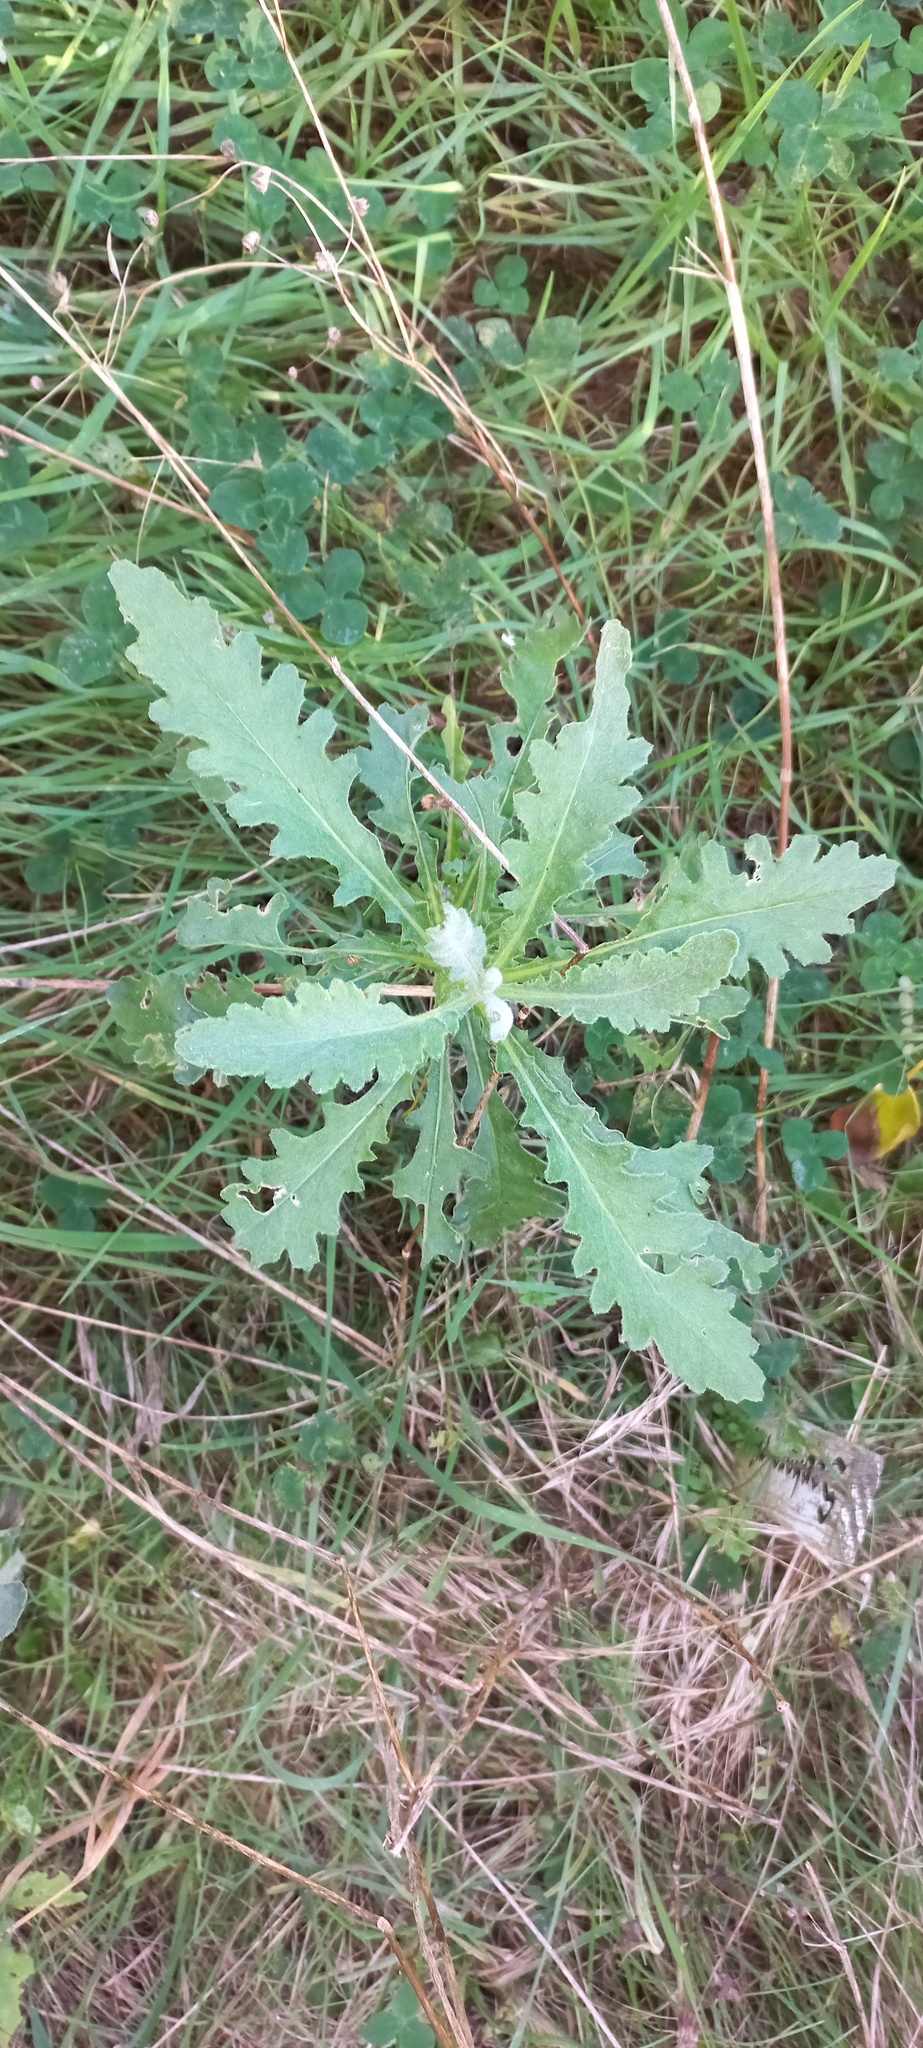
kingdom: Plantae
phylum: Tracheophyta
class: Magnoliopsida
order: Asterales
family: Asteraceae
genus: Senecio
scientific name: Senecio glomeratus
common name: Cutleaf burnweed
